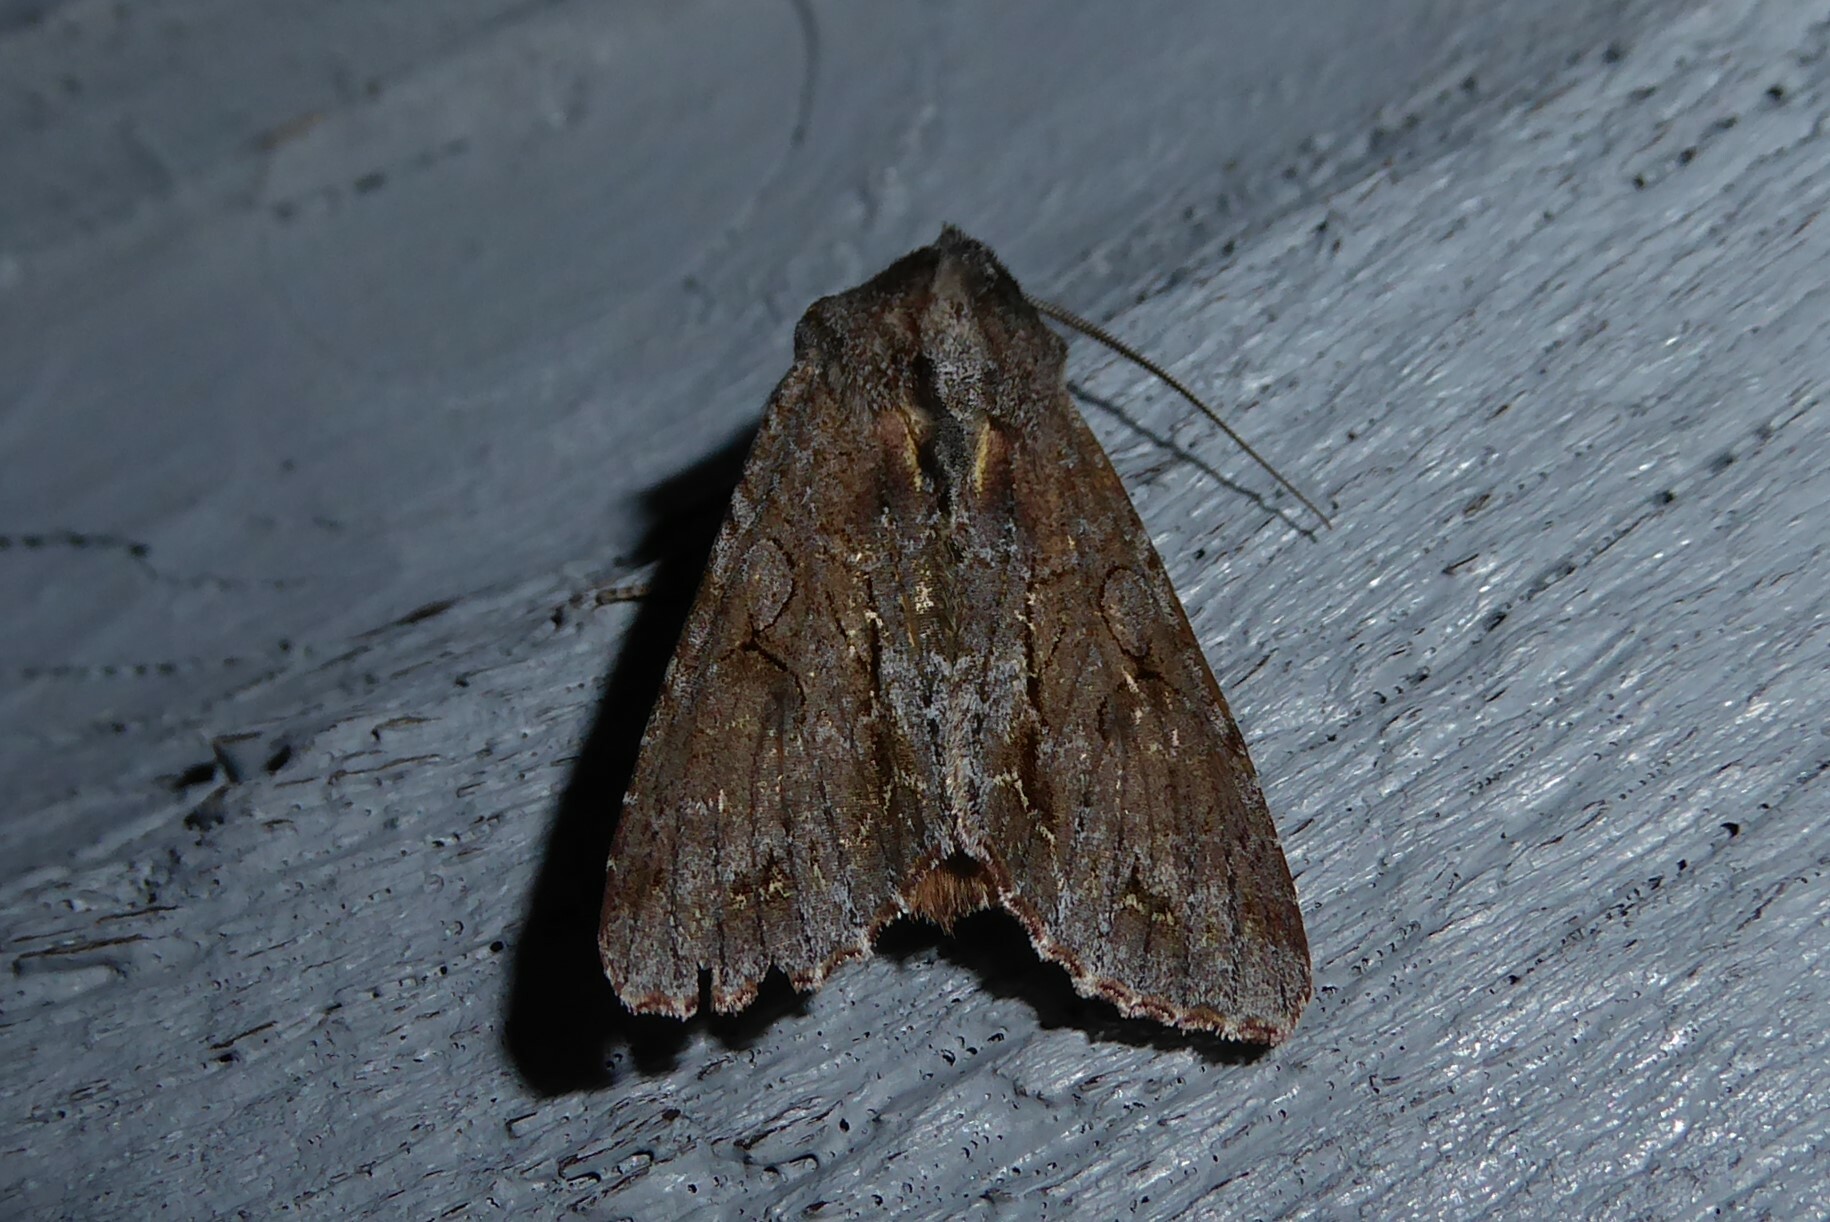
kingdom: Animalia
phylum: Arthropoda
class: Insecta
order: Lepidoptera
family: Noctuidae
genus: Ichneutica
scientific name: Ichneutica
